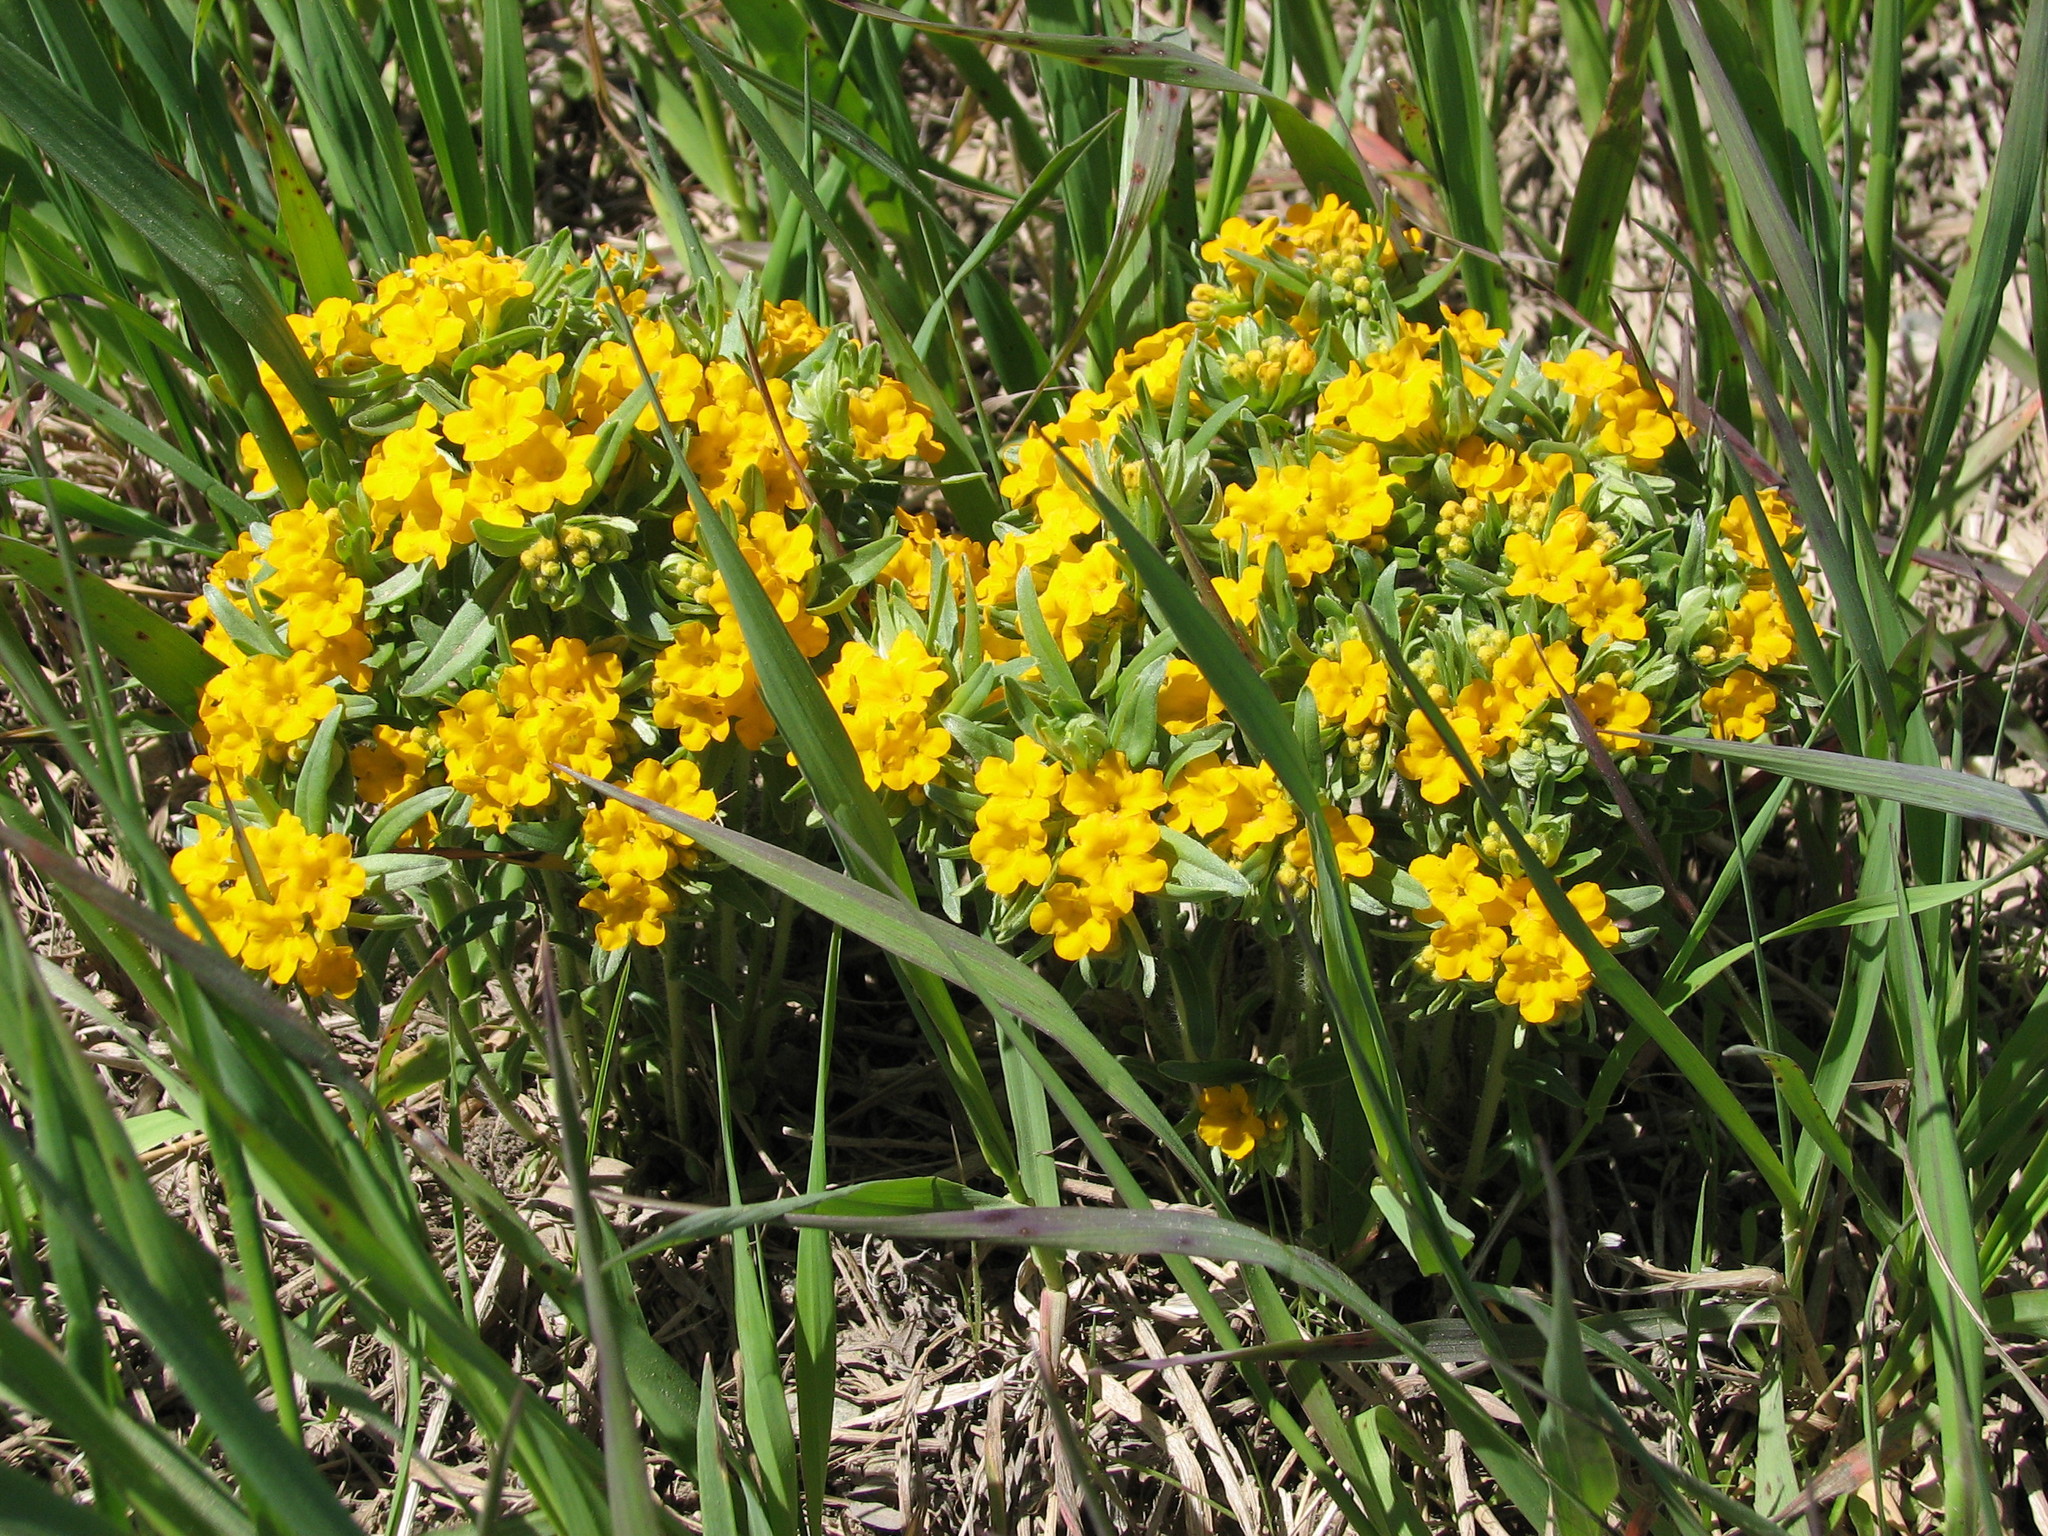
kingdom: Plantae
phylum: Tracheophyta
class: Magnoliopsida
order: Boraginales
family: Boraginaceae
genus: Lithospermum
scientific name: Lithospermum canescens
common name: Hoary puccoon
